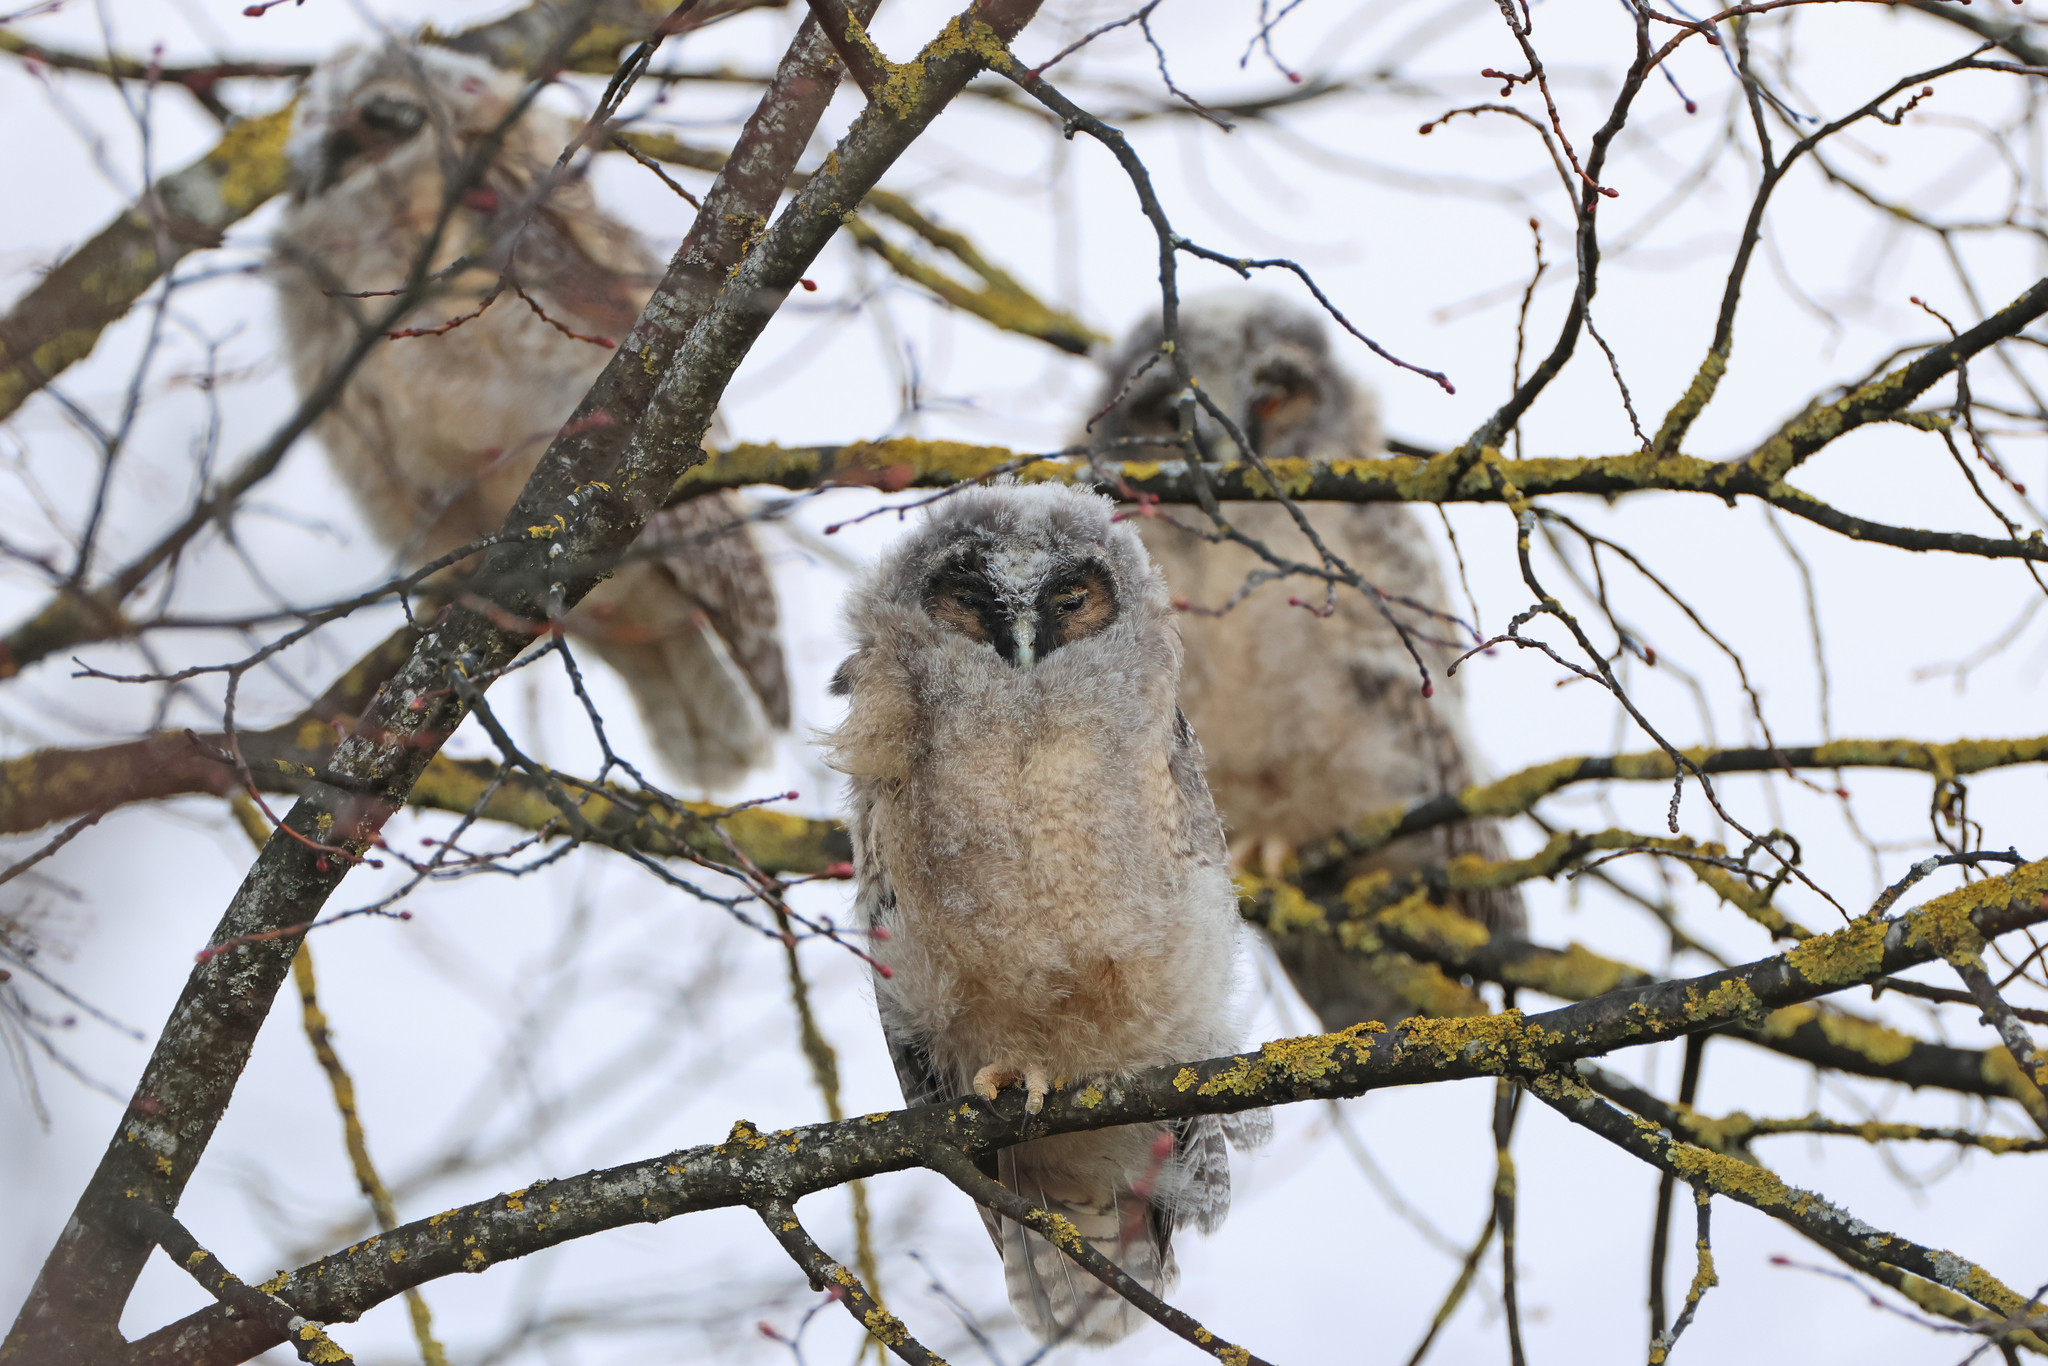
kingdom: Animalia
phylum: Chordata
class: Aves
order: Strigiformes
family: Strigidae
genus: Asio
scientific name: Asio otus
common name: Long-eared owl
